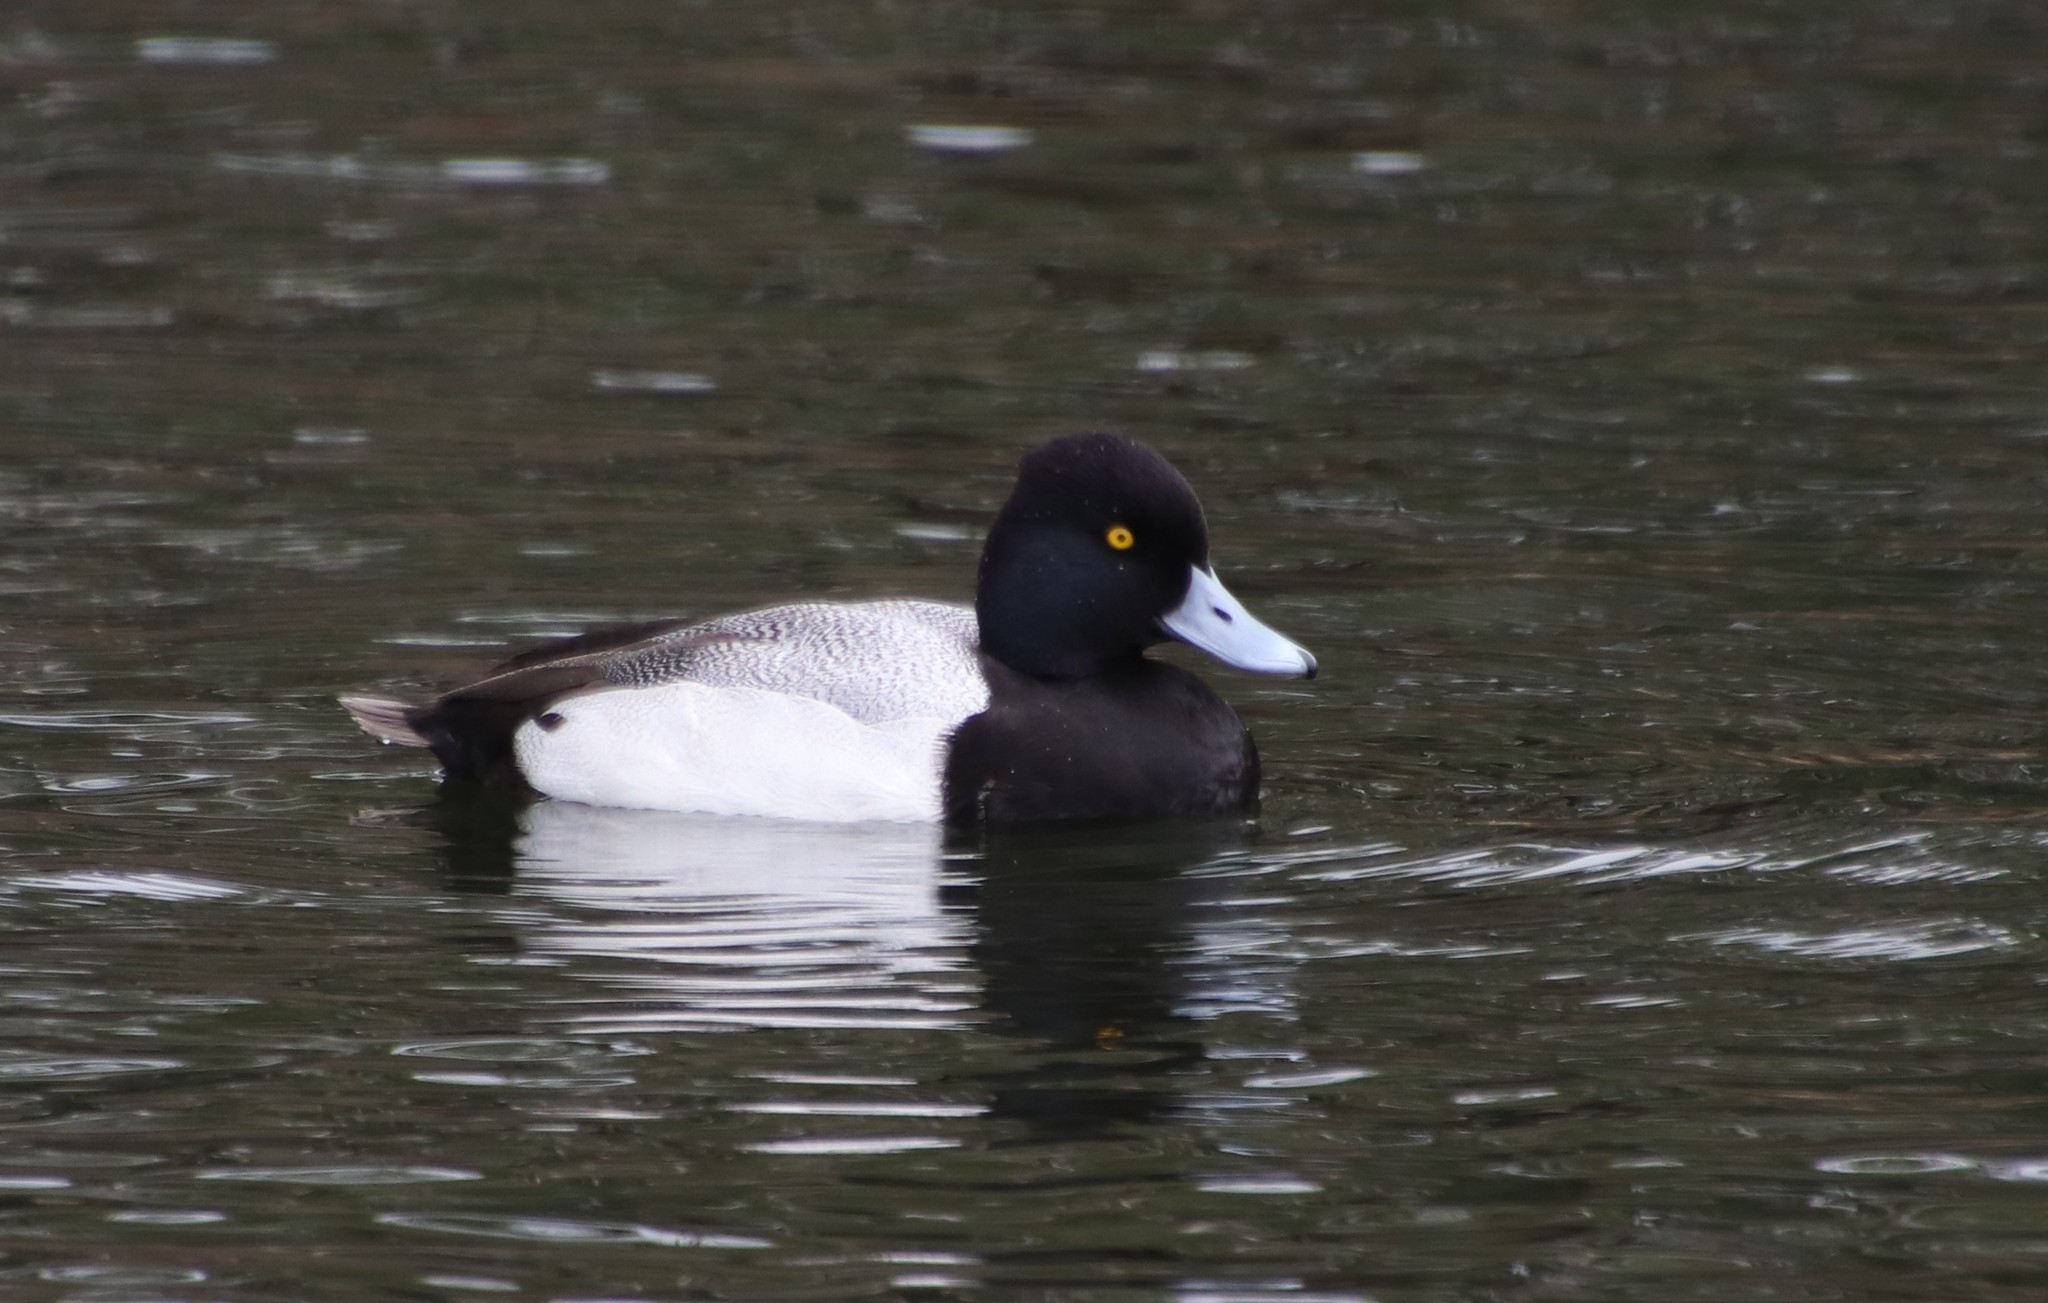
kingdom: Animalia
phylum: Chordata
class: Aves
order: Anseriformes
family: Anatidae
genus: Aythya
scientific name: Aythya affinis
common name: Lesser scaup
